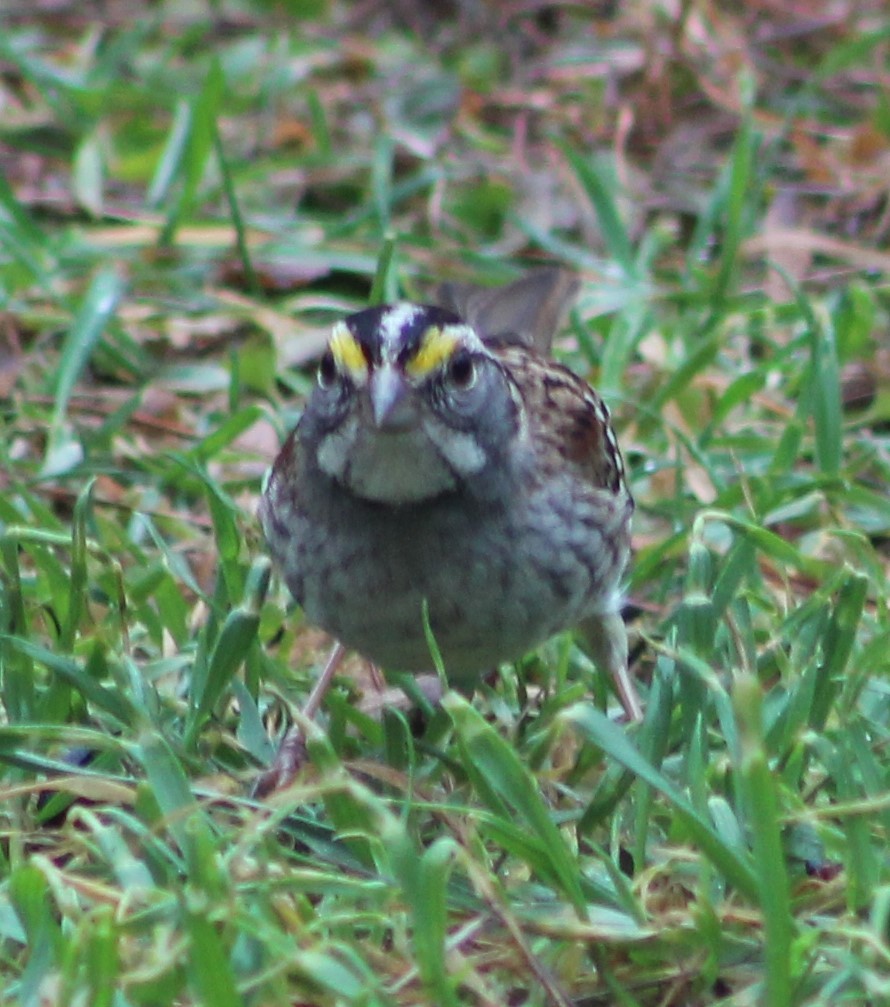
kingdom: Animalia
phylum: Chordata
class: Aves
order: Passeriformes
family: Passerellidae
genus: Zonotrichia
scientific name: Zonotrichia albicollis
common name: White-throated sparrow
